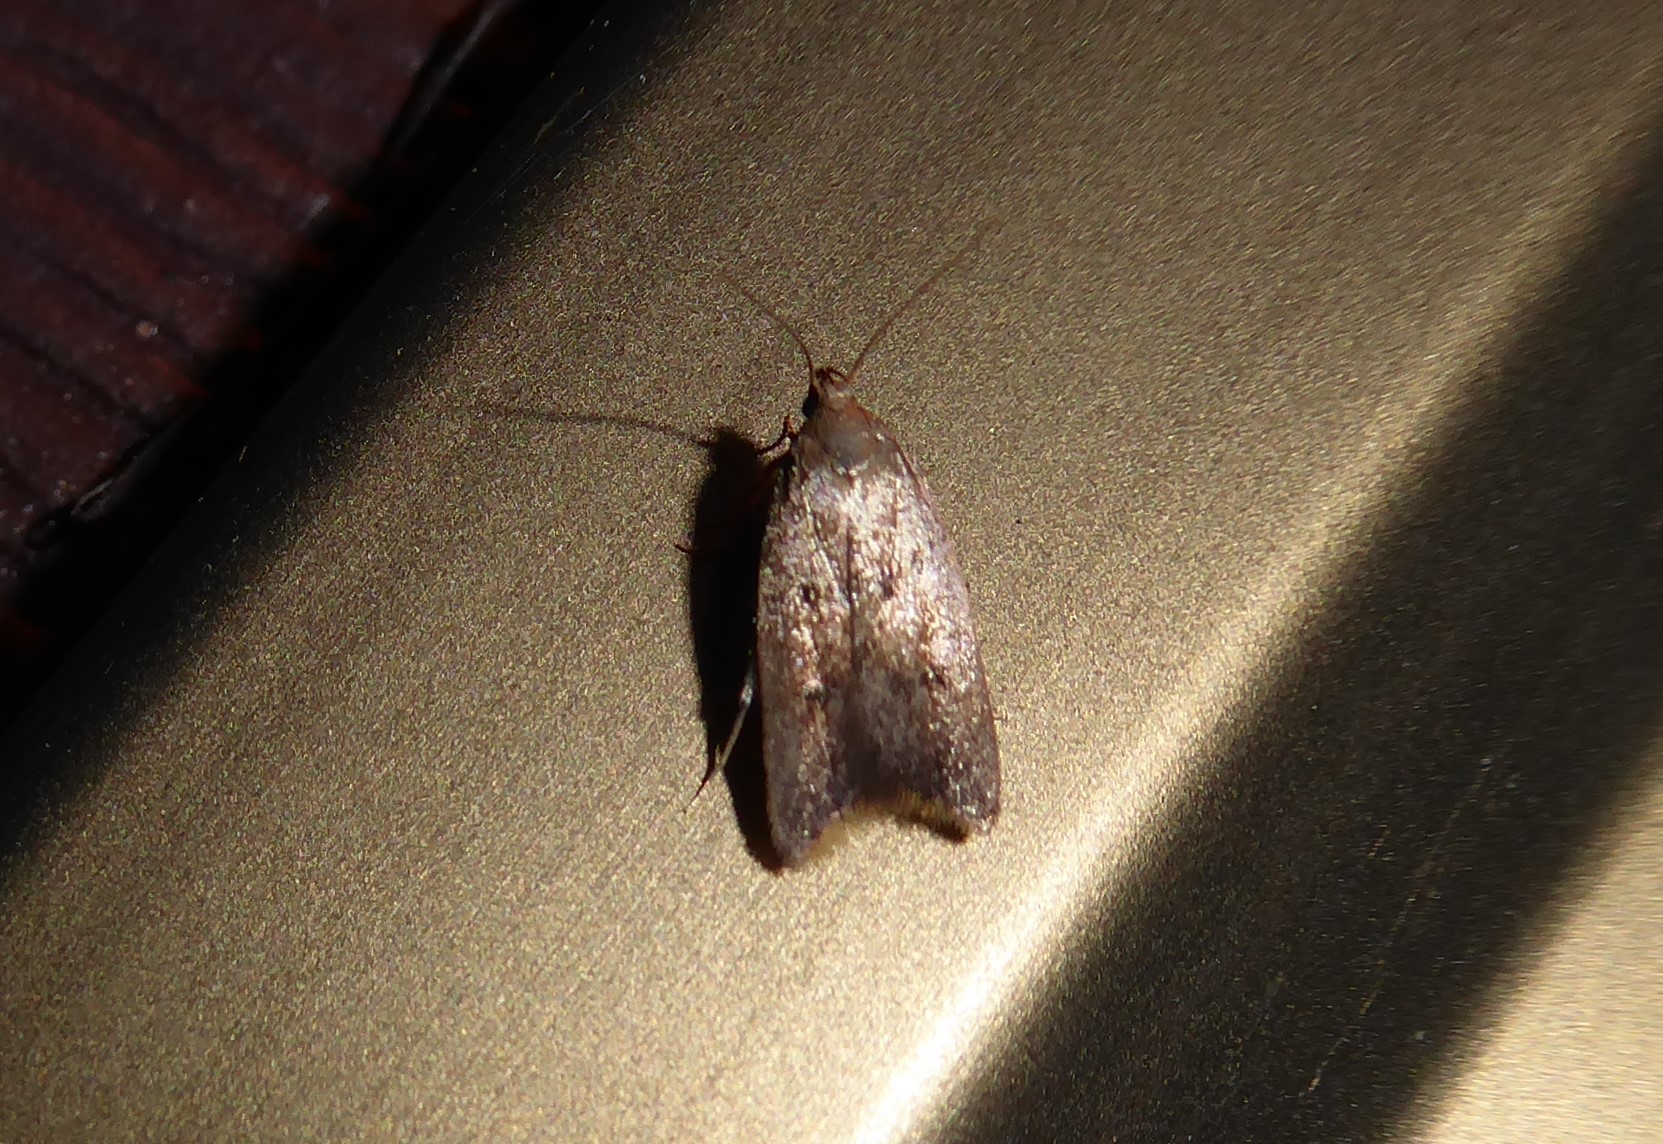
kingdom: Animalia
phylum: Arthropoda
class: Insecta
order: Lepidoptera
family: Oecophoridae
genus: Tachystola
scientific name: Tachystola acroxantha
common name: Ruddy streak
